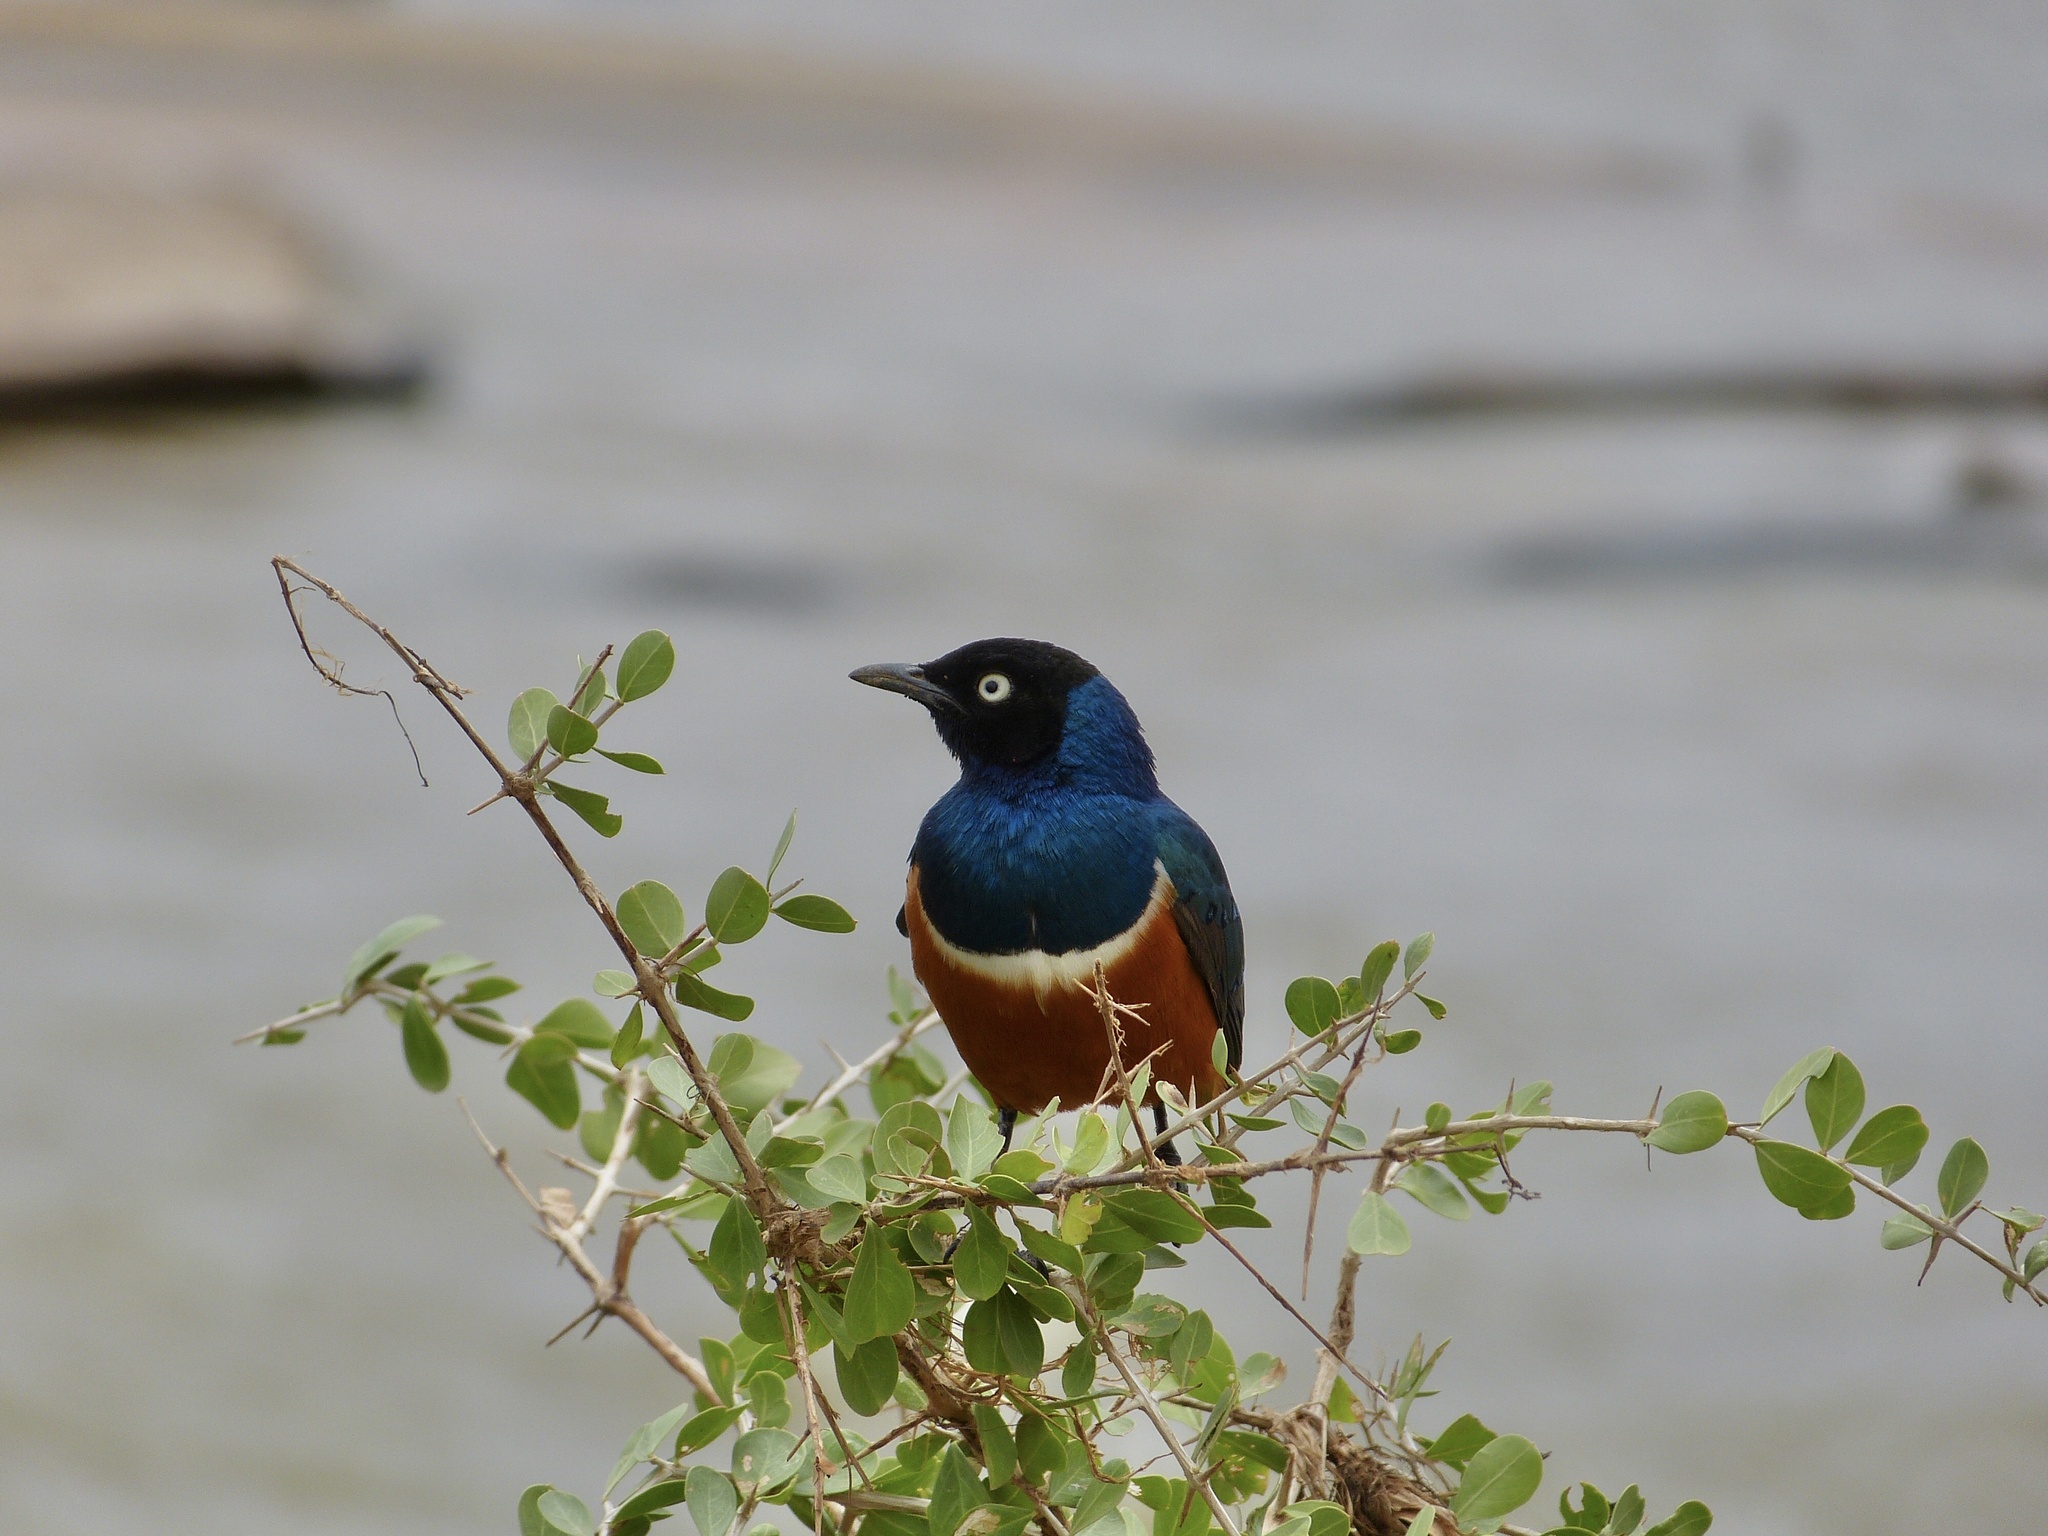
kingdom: Animalia
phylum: Chordata
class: Aves
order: Passeriformes
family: Sturnidae
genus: Lamprotornis
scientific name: Lamprotornis superbus
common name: Superb starling
